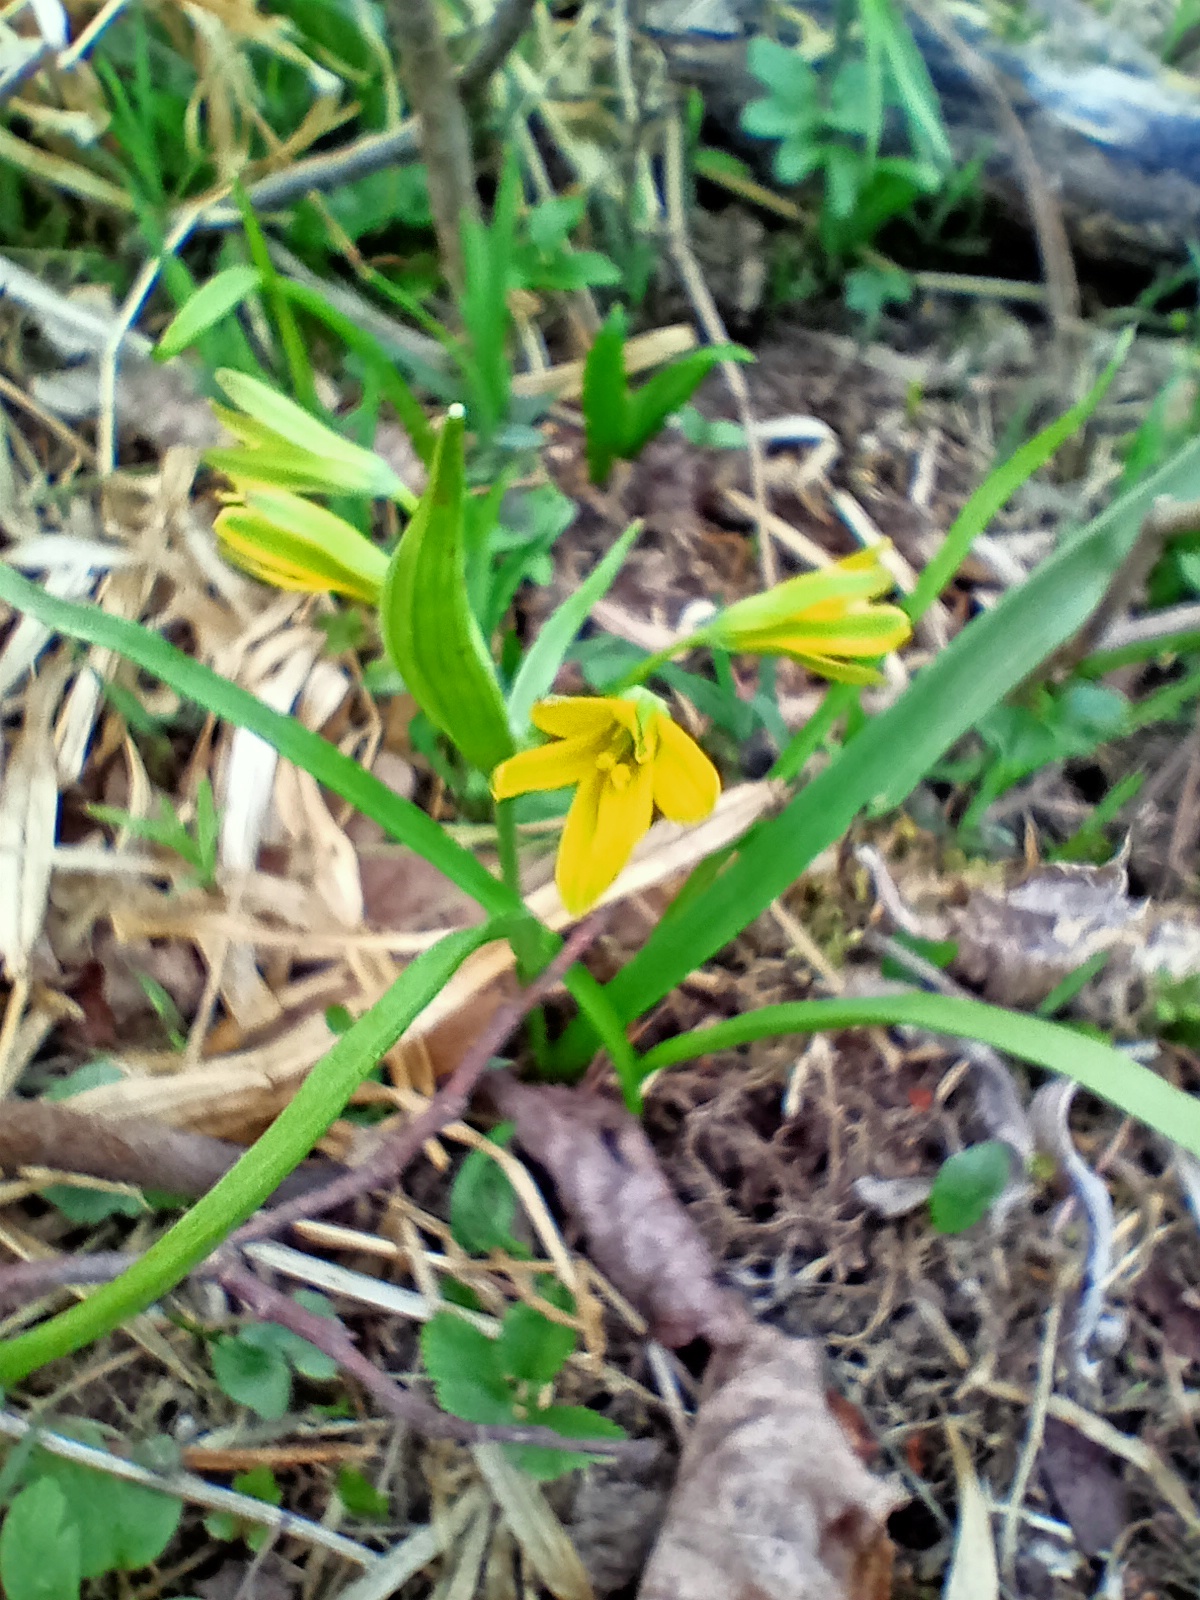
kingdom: Plantae
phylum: Tracheophyta
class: Liliopsida
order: Liliales
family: Liliaceae
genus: Gagea
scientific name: Gagea lutea
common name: Yellow star-of-bethlehem
